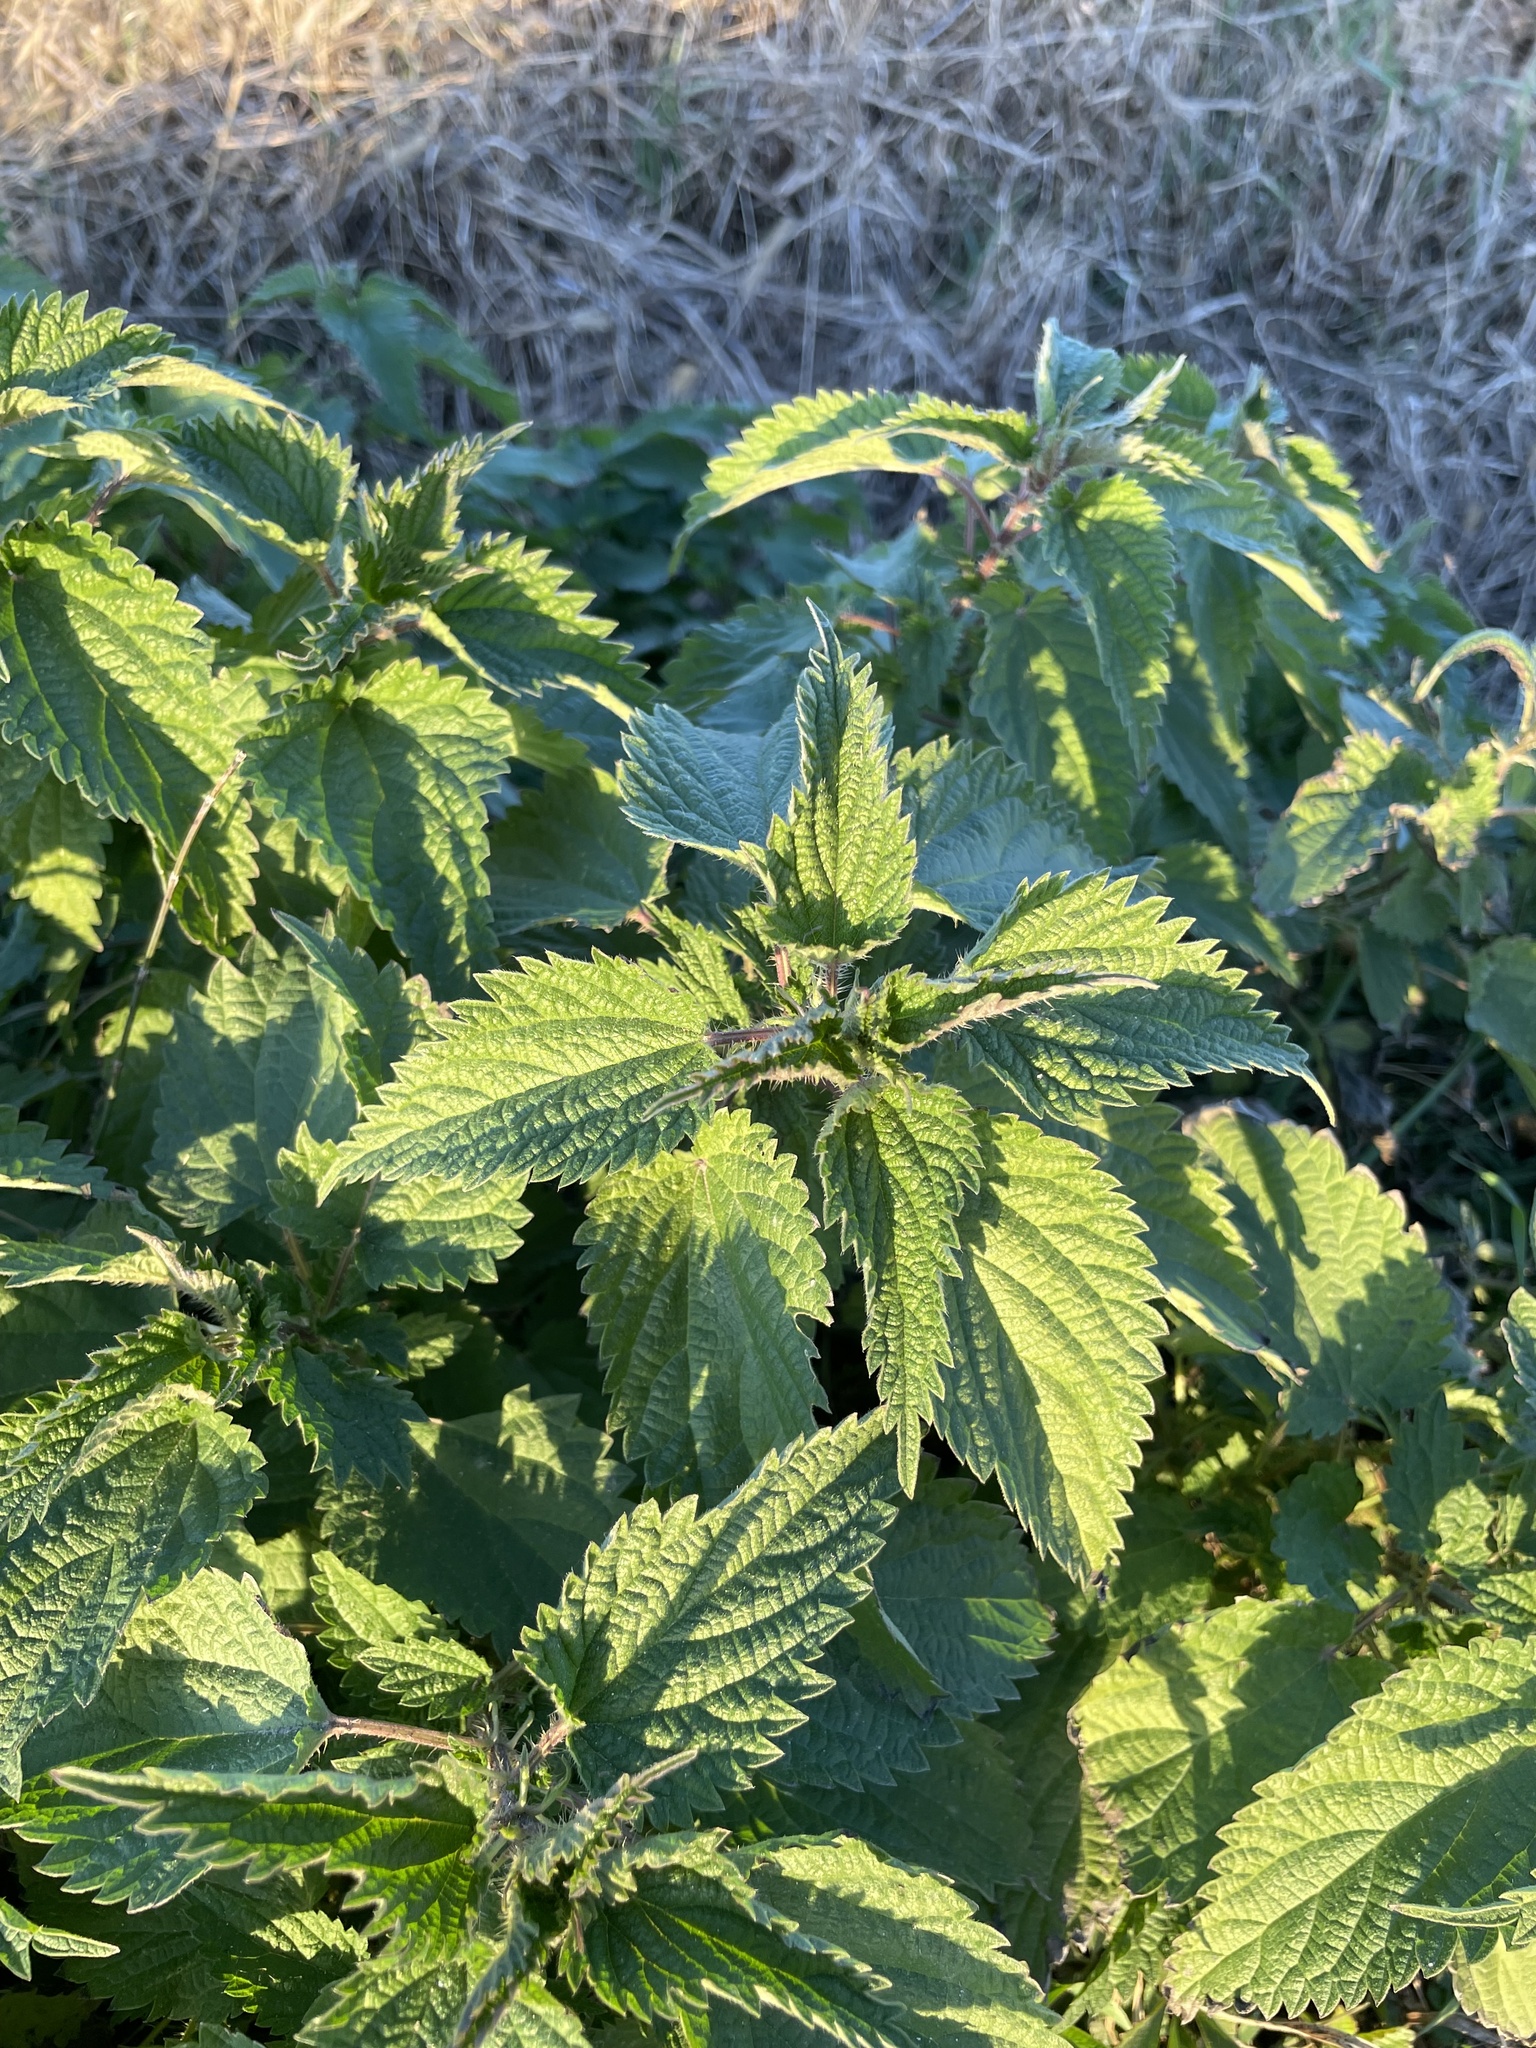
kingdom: Plantae
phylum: Tracheophyta
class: Magnoliopsida
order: Rosales
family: Urticaceae
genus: Urtica
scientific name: Urtica dioica
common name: Common nettle
